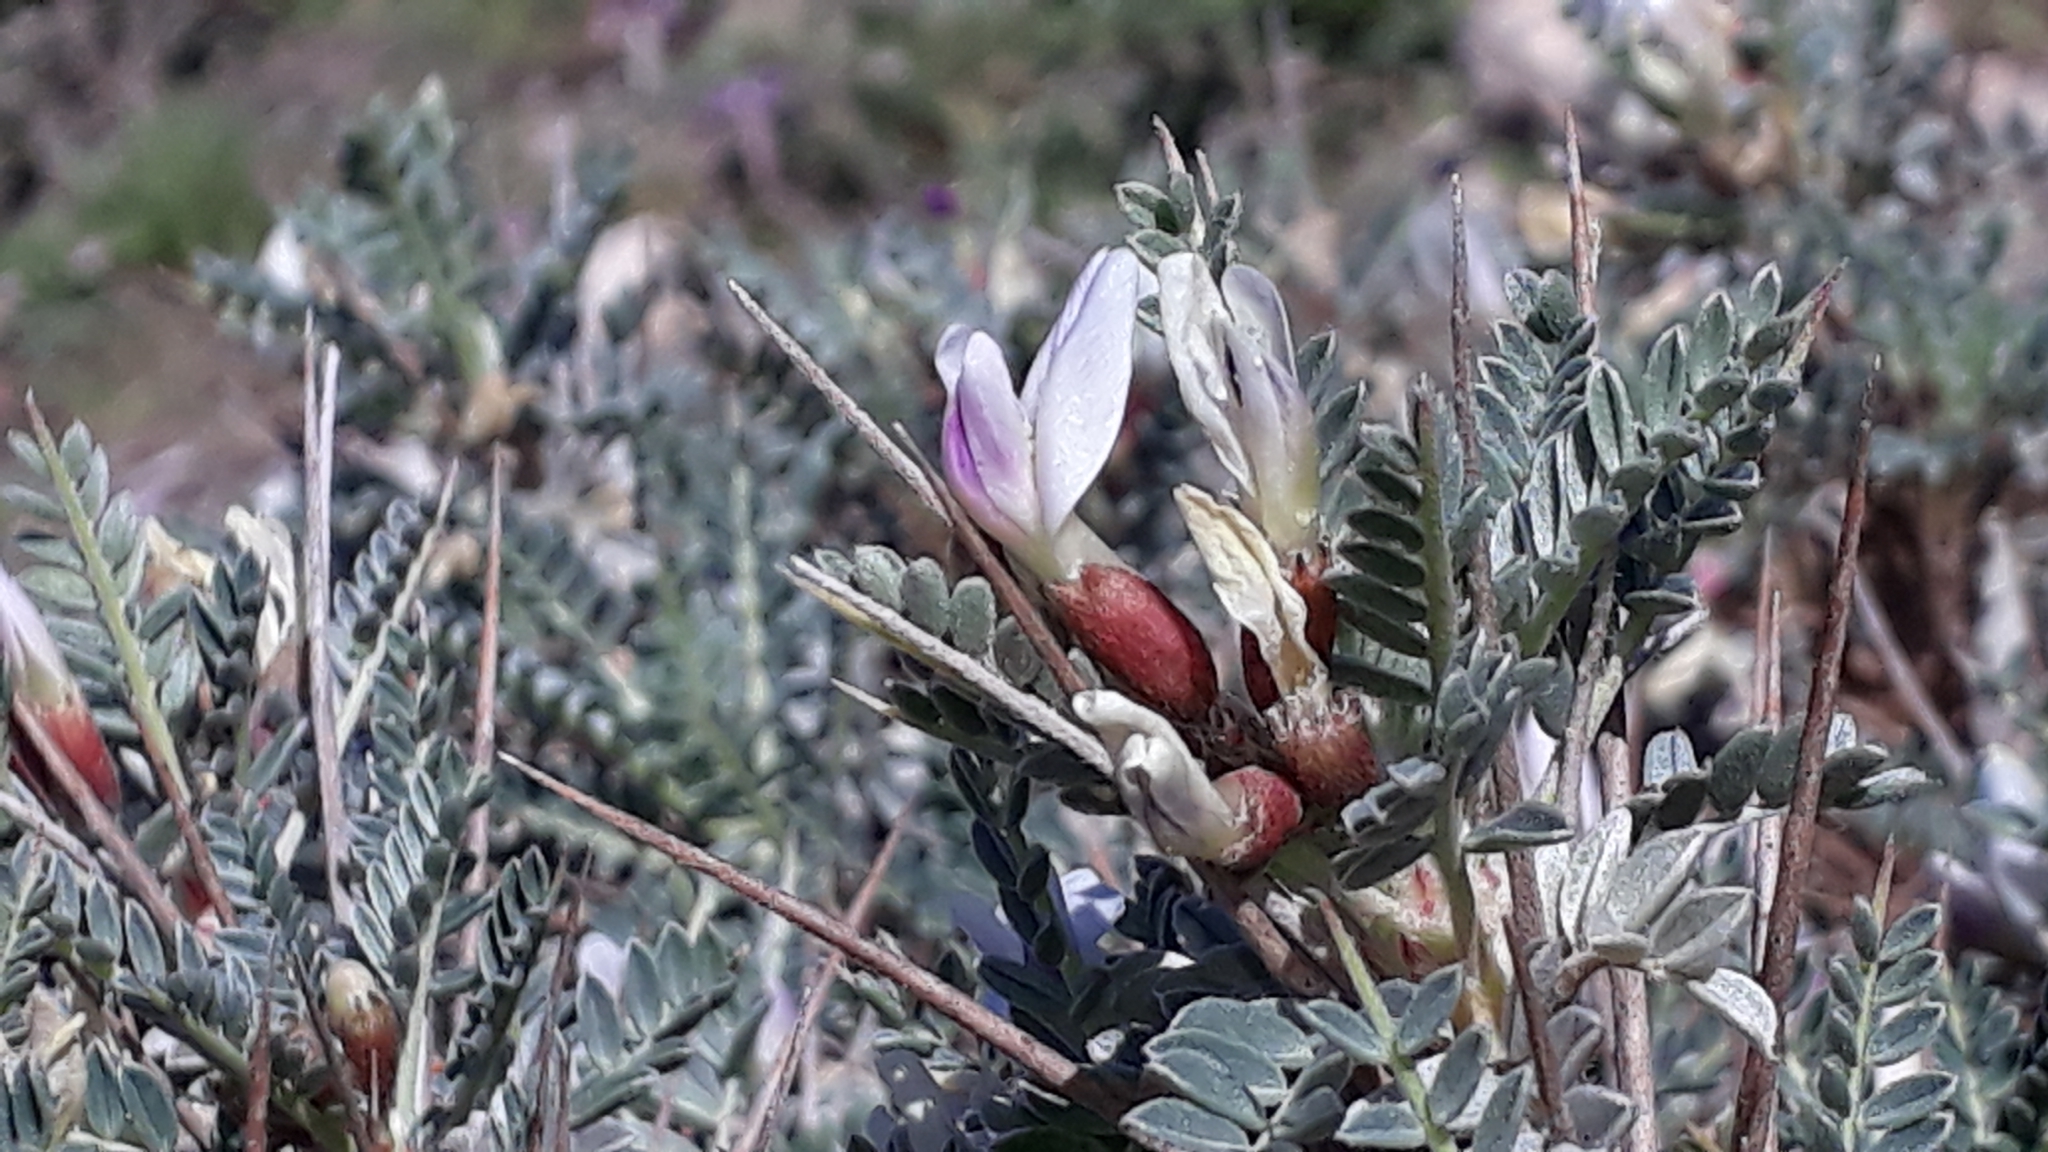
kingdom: Plantae
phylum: Tracheophyta
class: Magnoliopsida
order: Fabales
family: Fabaceae
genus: Astragalus
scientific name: Astragalus terraccianoi
